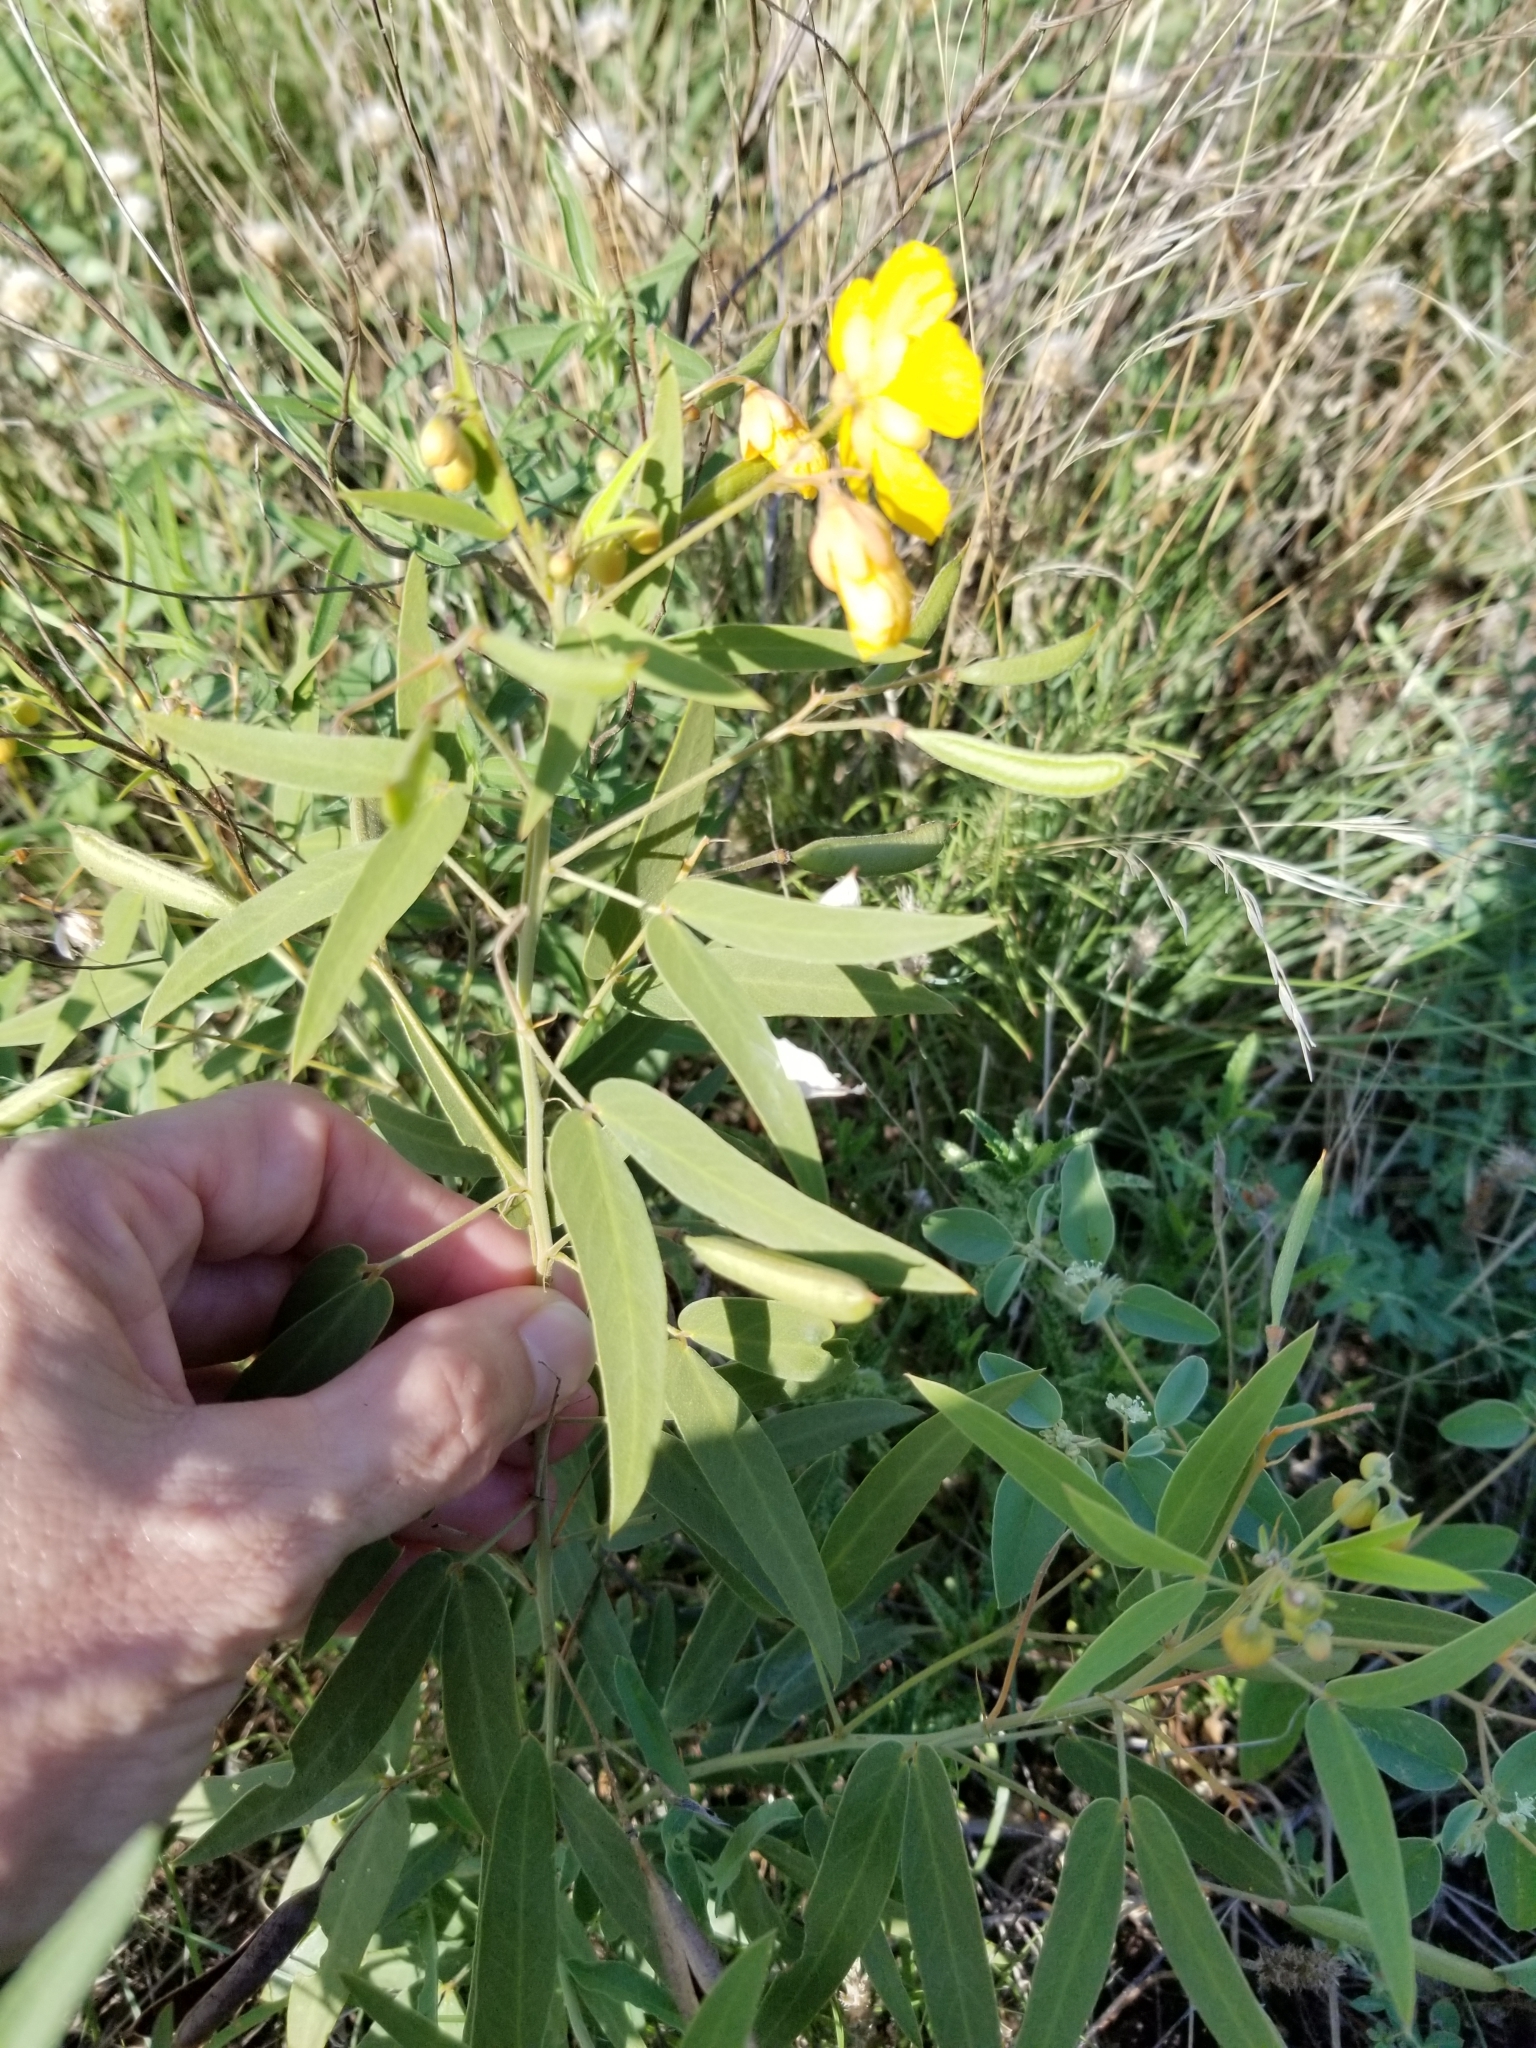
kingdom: Plantae
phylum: Tracheophyta
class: Magnoliopsida
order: Fabales
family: Fabaceae
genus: Senna
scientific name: Senna roemeriana
